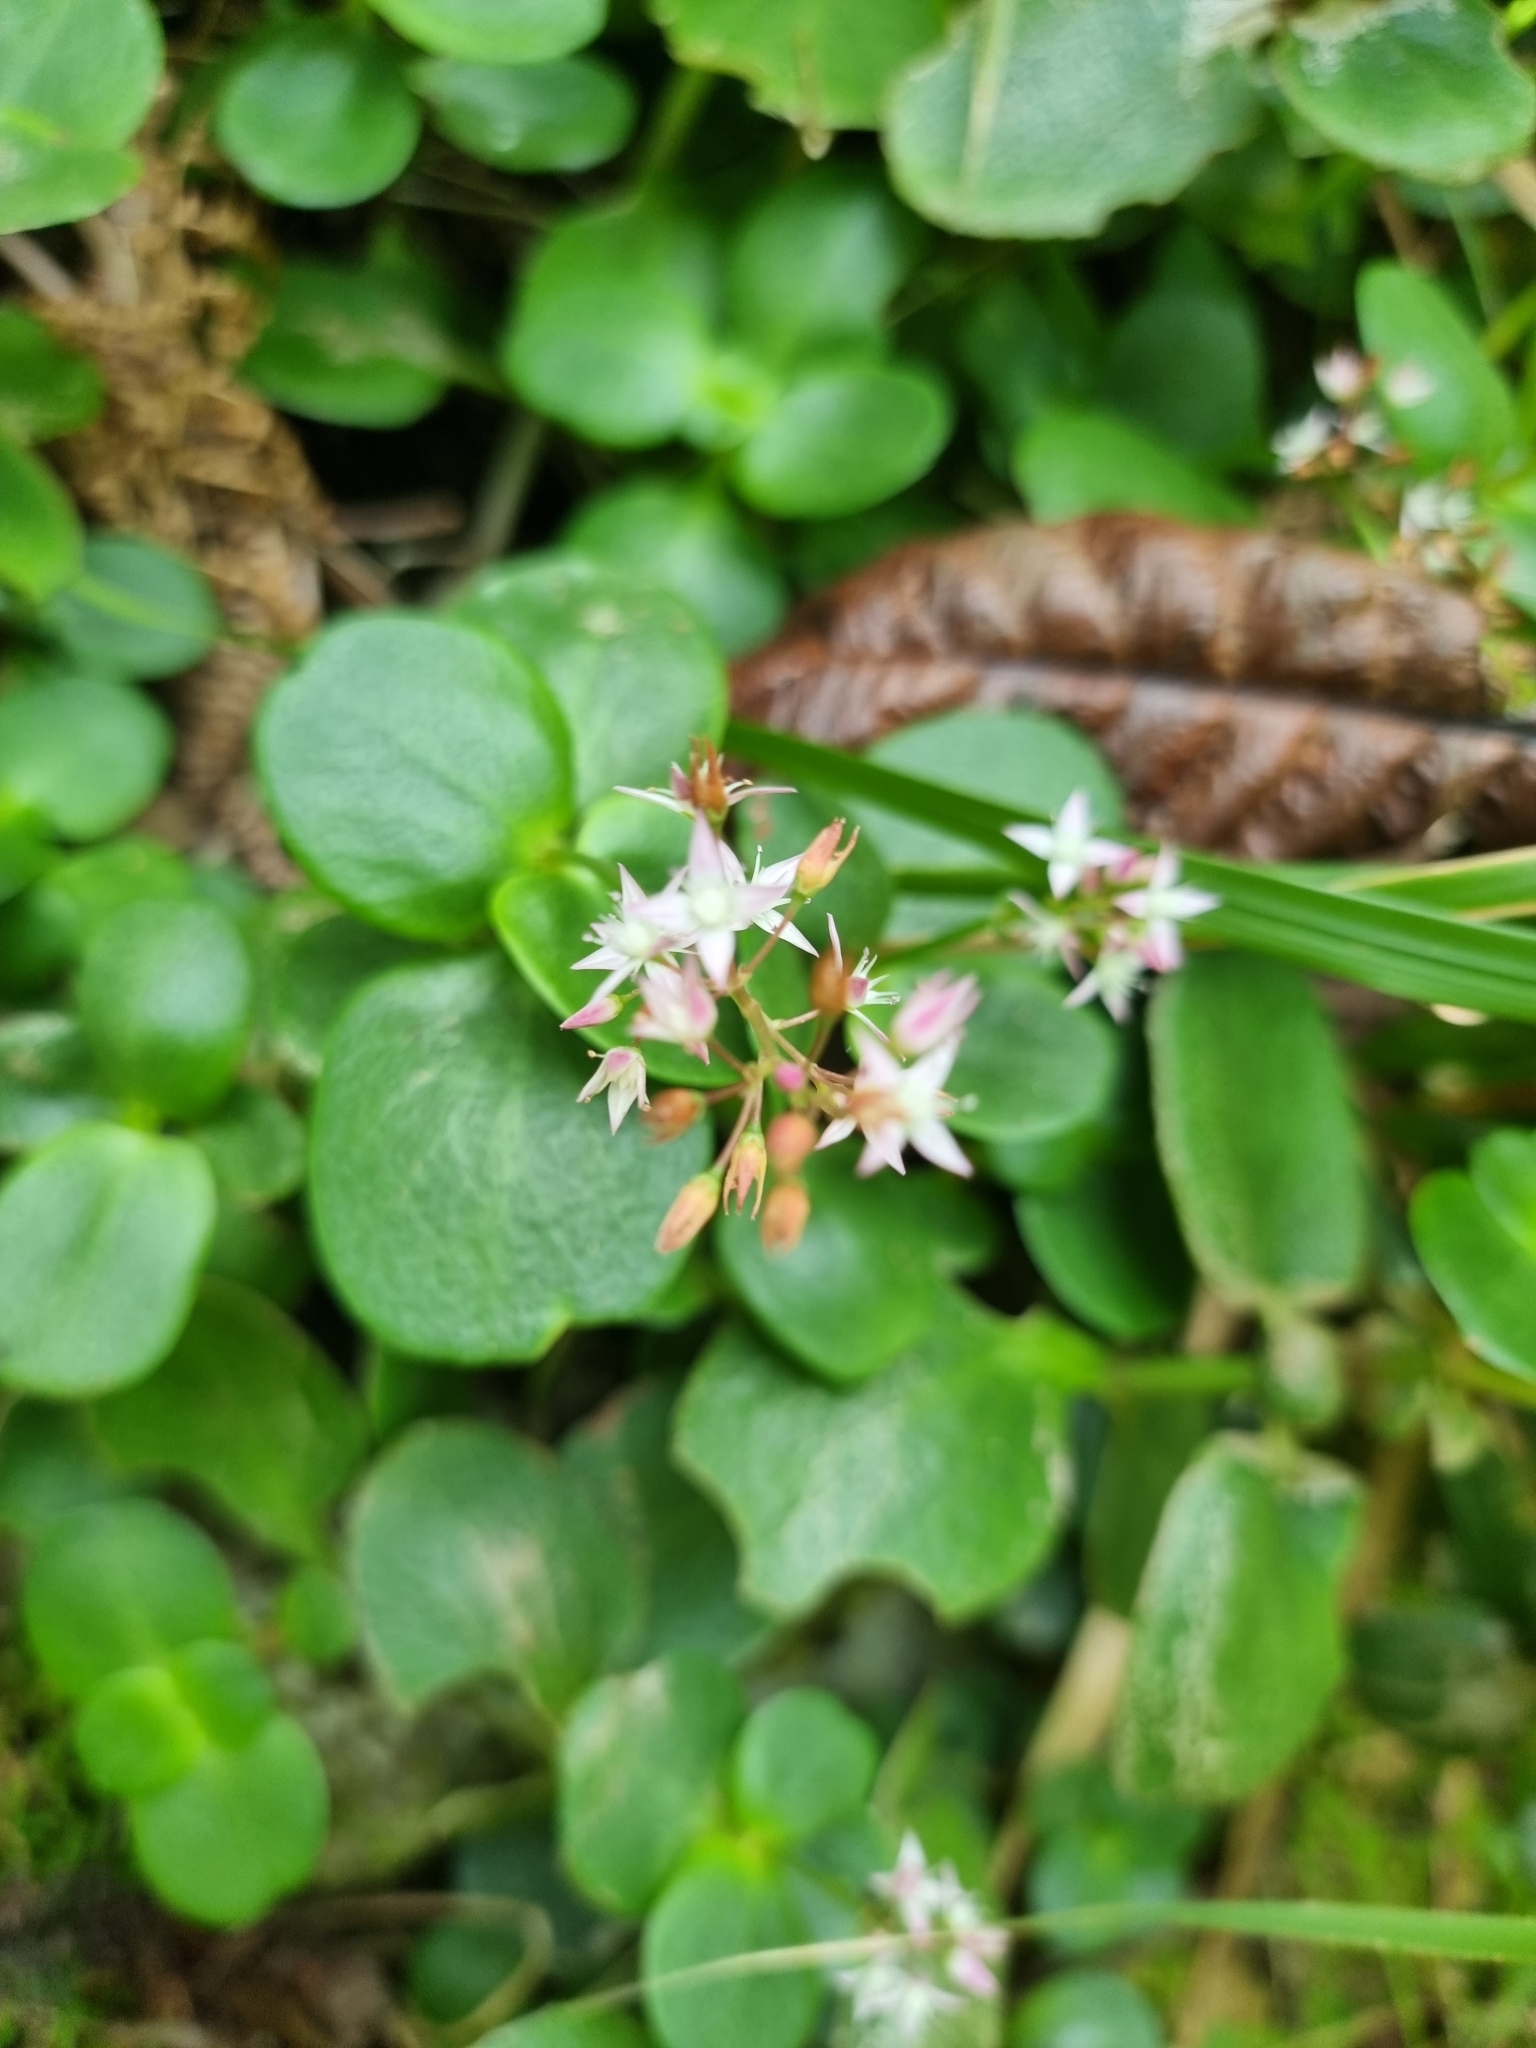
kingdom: Plantae
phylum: Tracheophyta
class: Magnoliopsida
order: Saxifragales
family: Crassulaceae
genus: Crassula
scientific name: Crassula multicava
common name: Cape province pygmyweed
